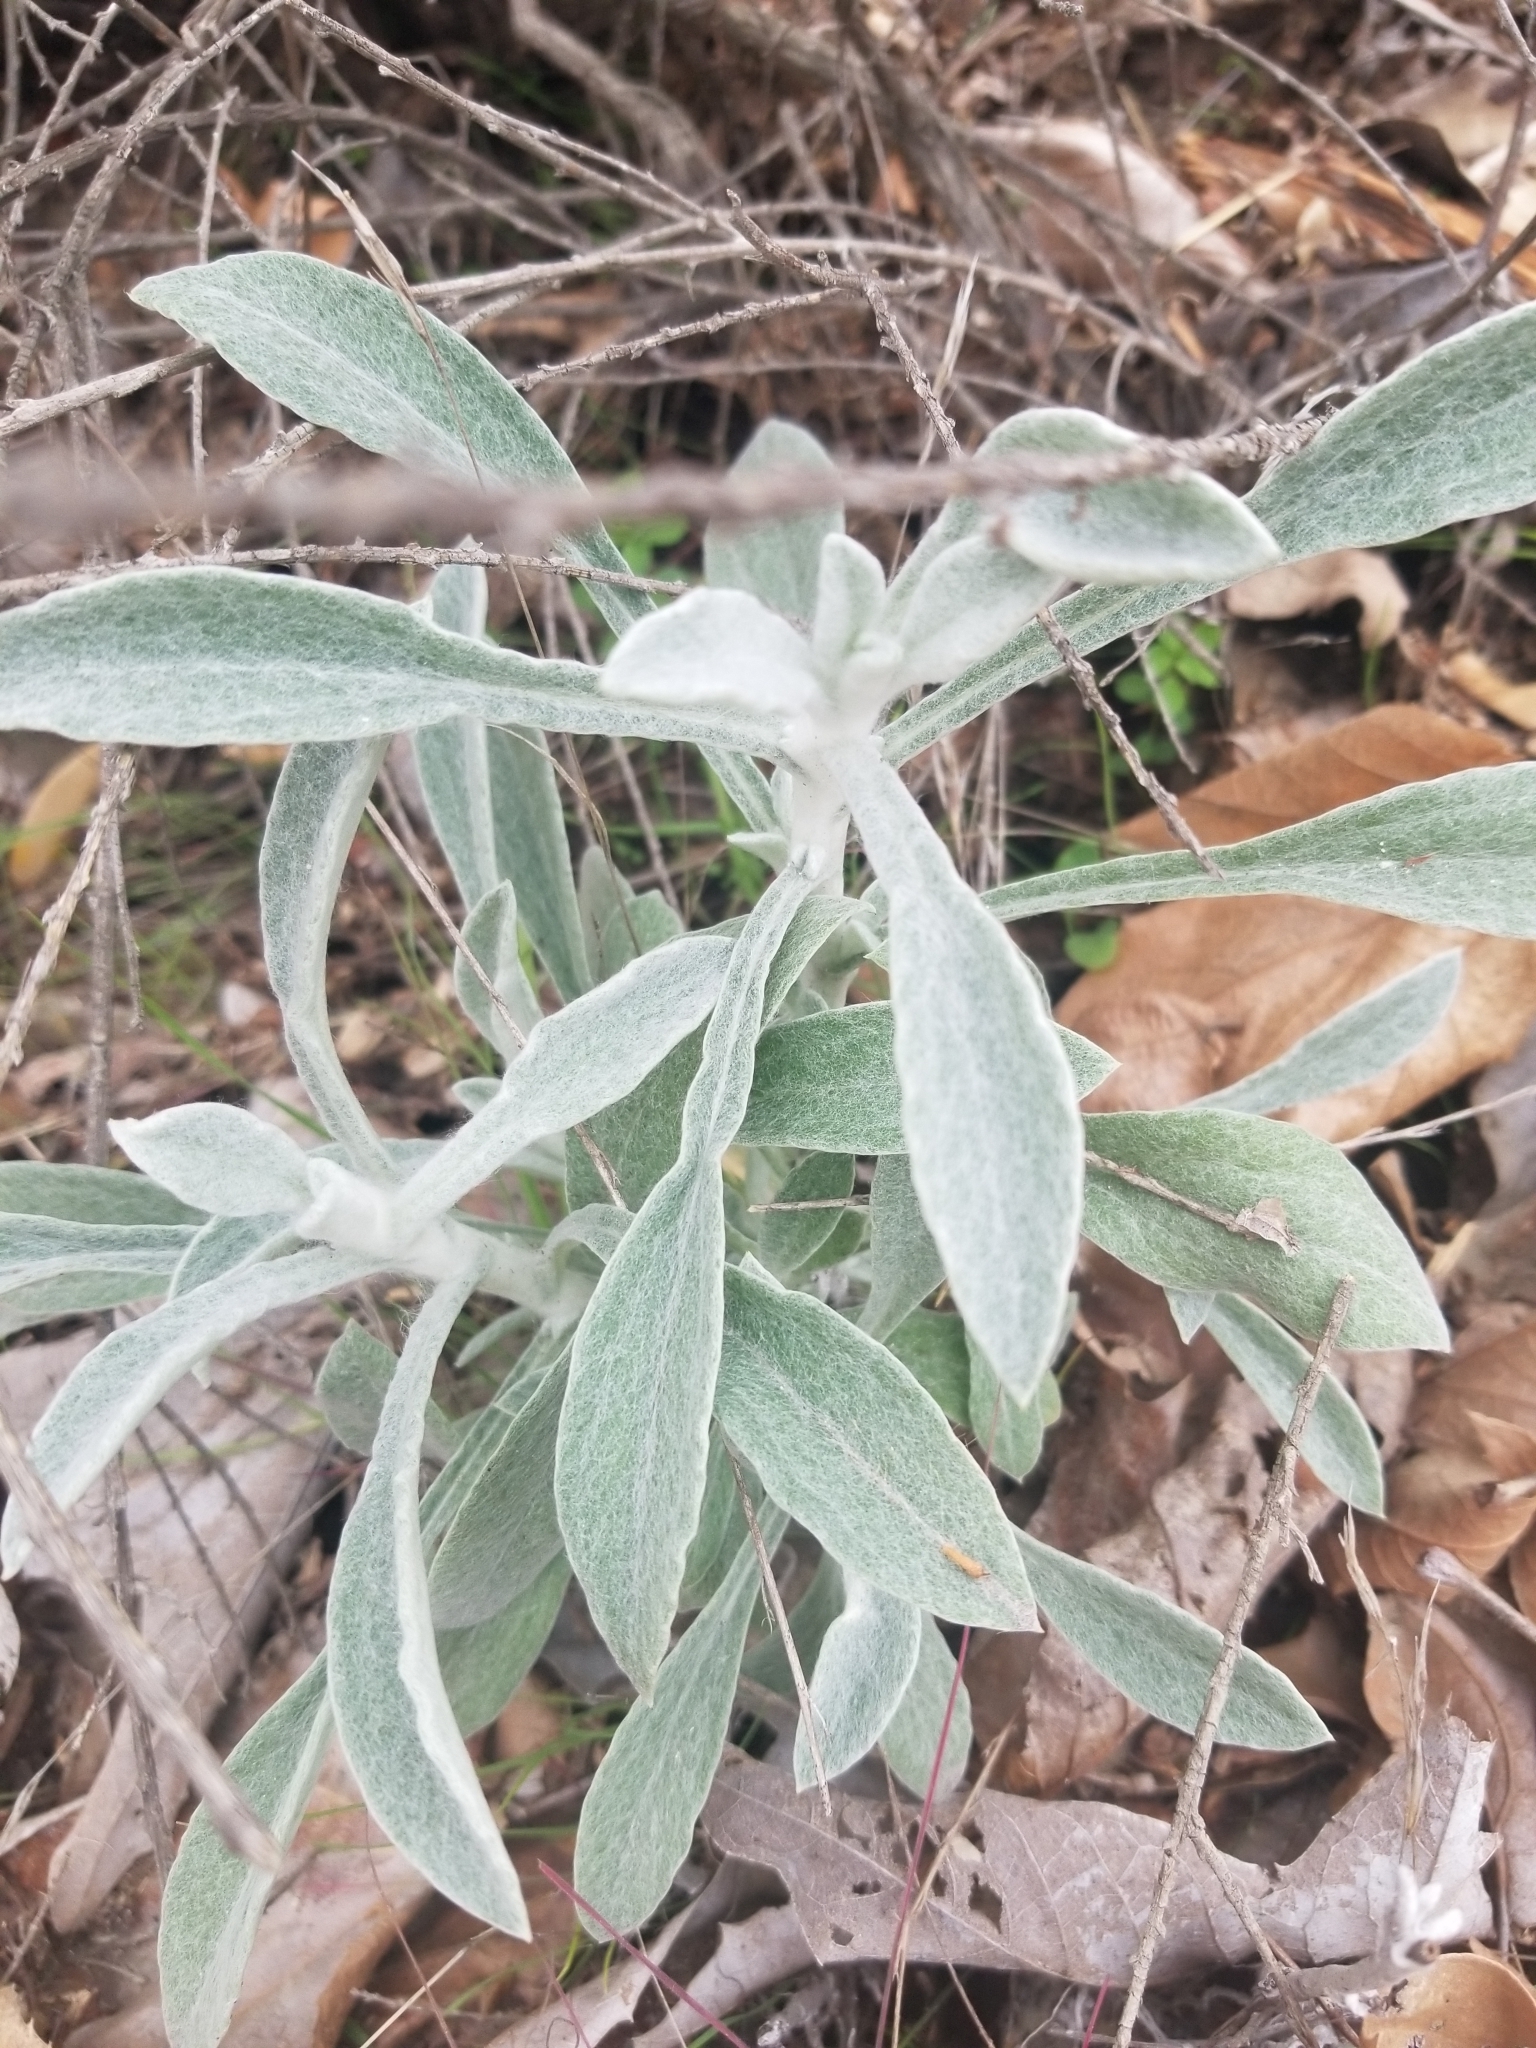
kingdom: Plantae
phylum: Tracheophyta
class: Magnoliopsida
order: Asterales
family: Asteraceae
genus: Pseudognaphalium
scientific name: Pseudognaphalium
